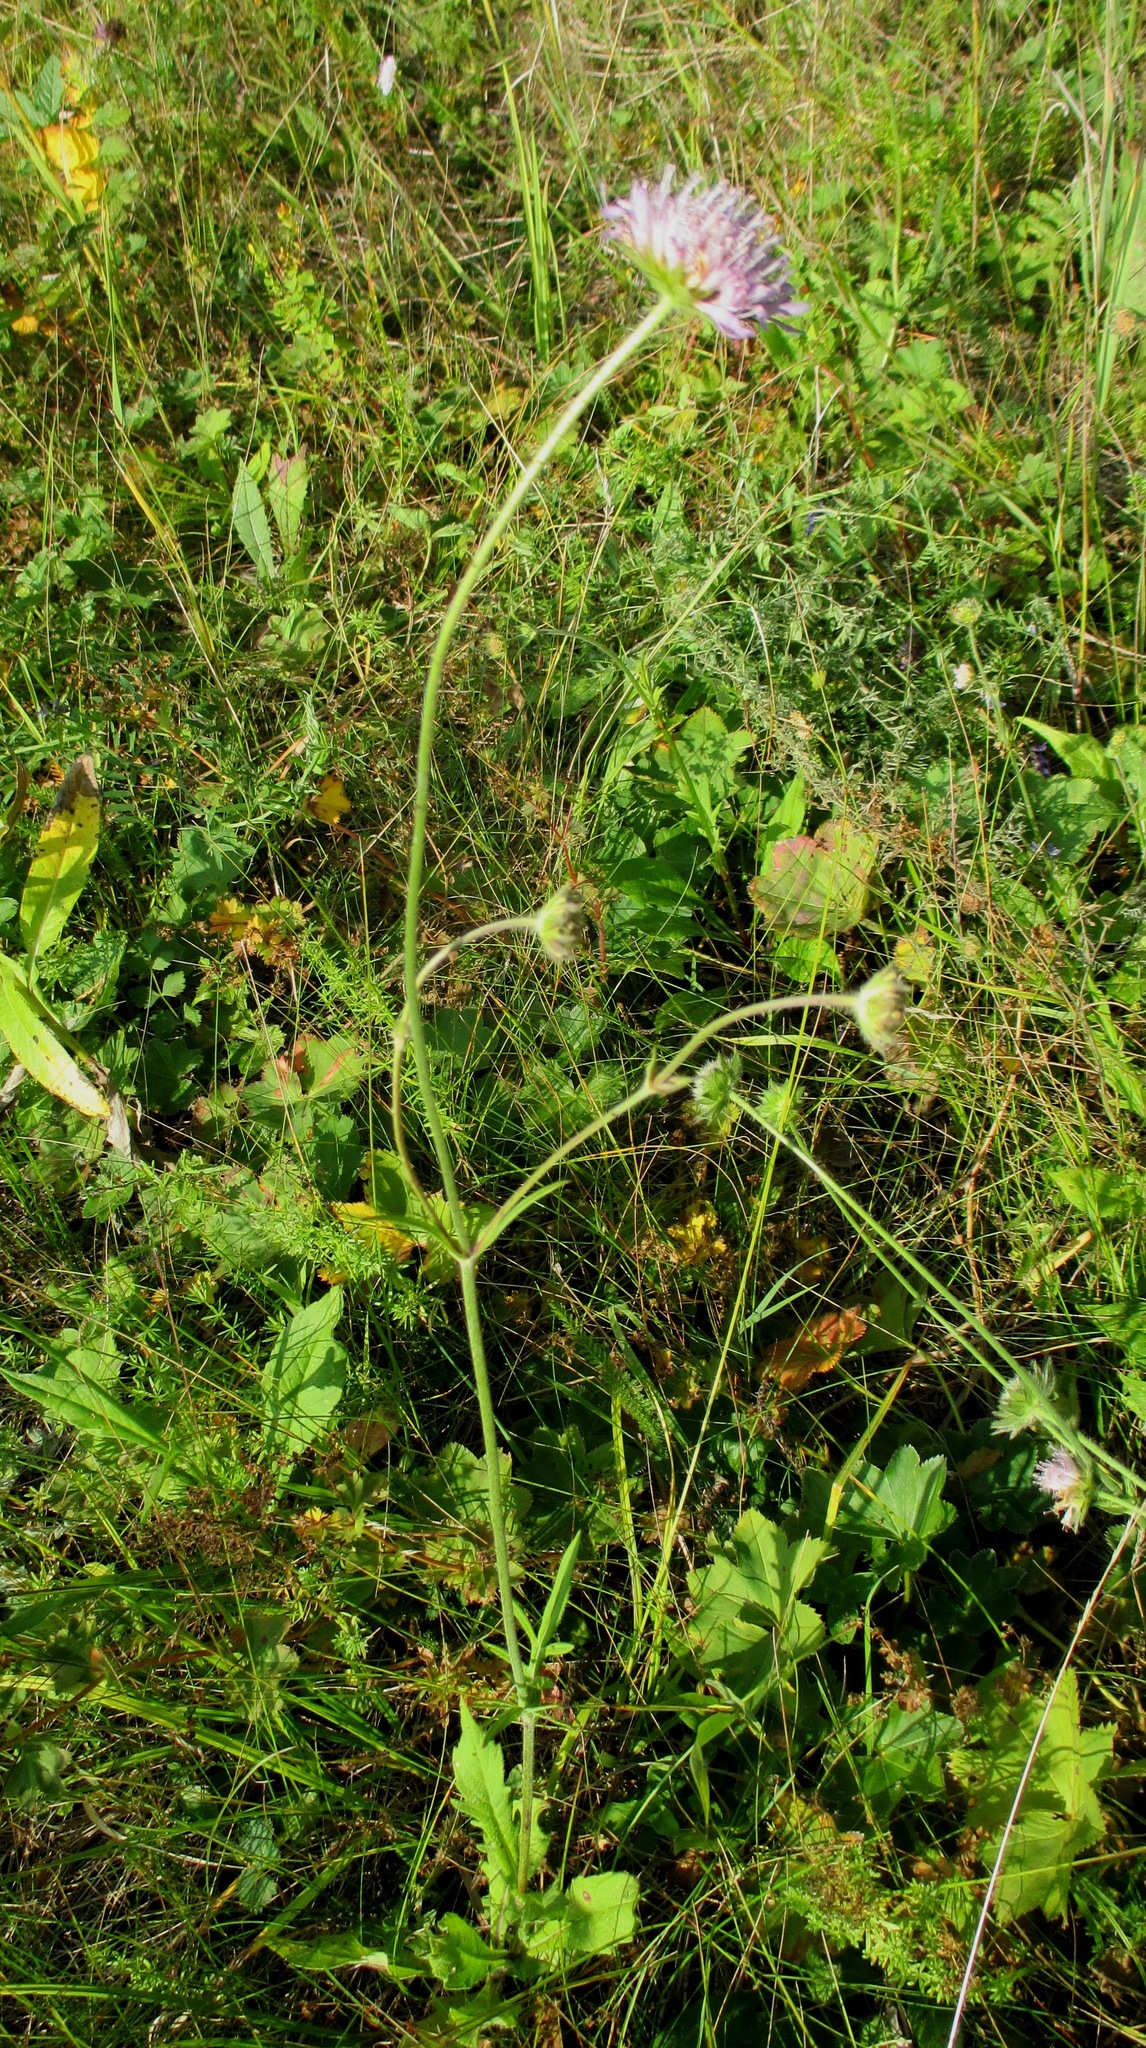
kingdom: Plantae
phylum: Tracheophyta
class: Magnoliopsida
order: Dipsacales
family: Caprifoliaceae
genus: Knautia
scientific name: Knautia arvensis
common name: Field scabiosa
